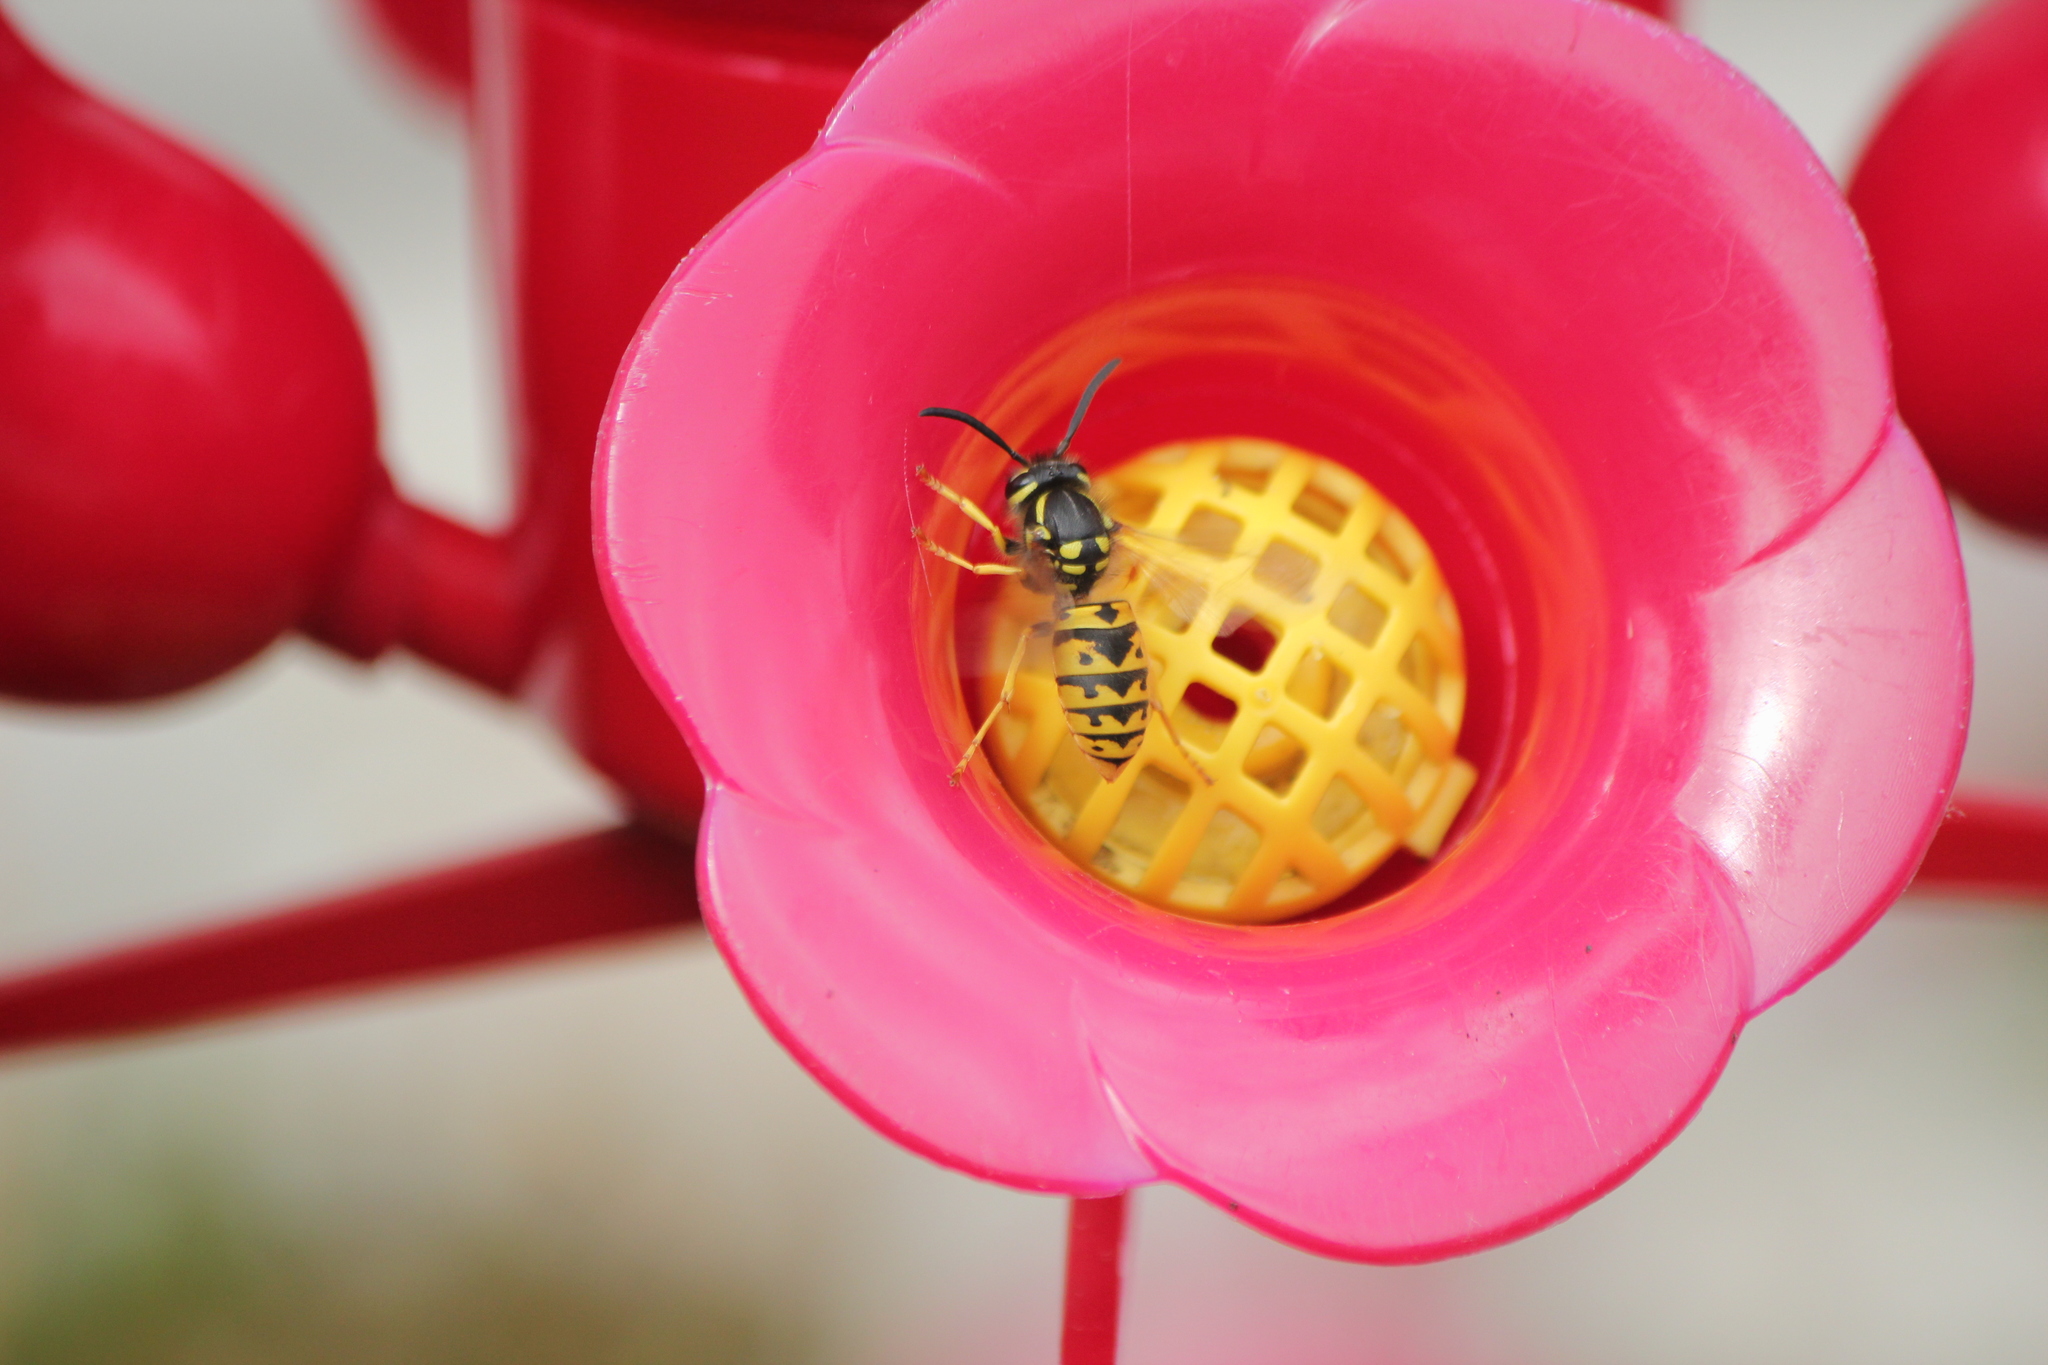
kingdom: Animalia
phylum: Arthropoda
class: Insecta
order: Hymenoptera
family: Vespidae
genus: Vespula
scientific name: Vespula germanica
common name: German wasp
